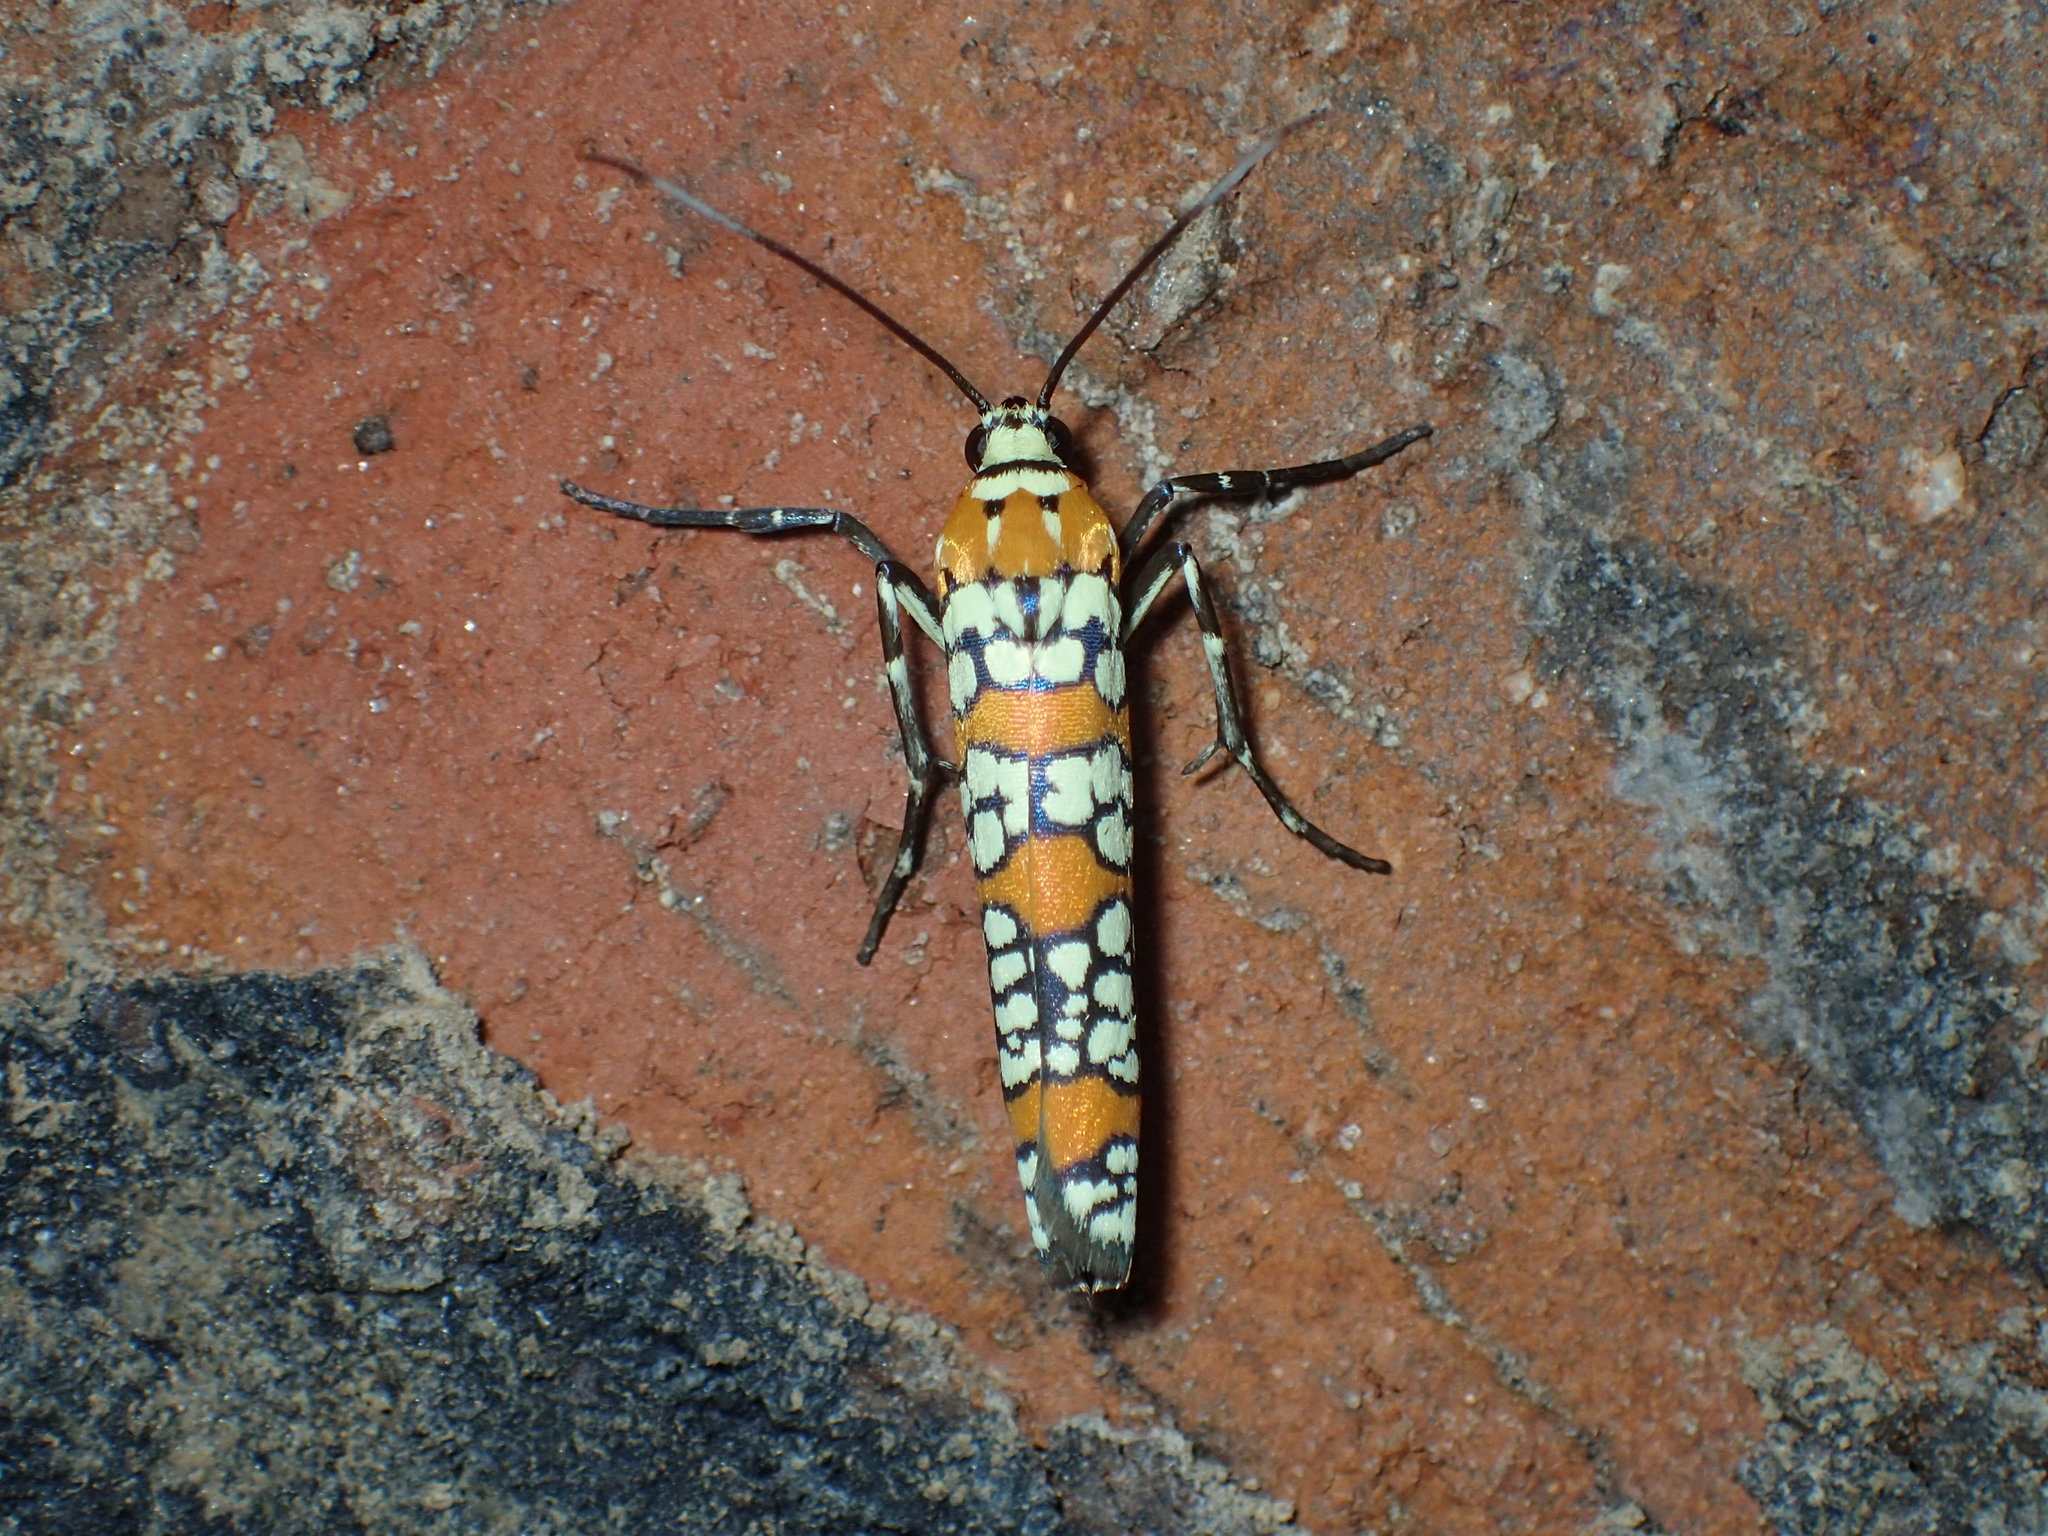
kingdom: Animalia
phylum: Arthropoda
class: Insecta
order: Lepidoptera
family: Attevidae
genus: Atteva
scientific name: Atteva punctella
